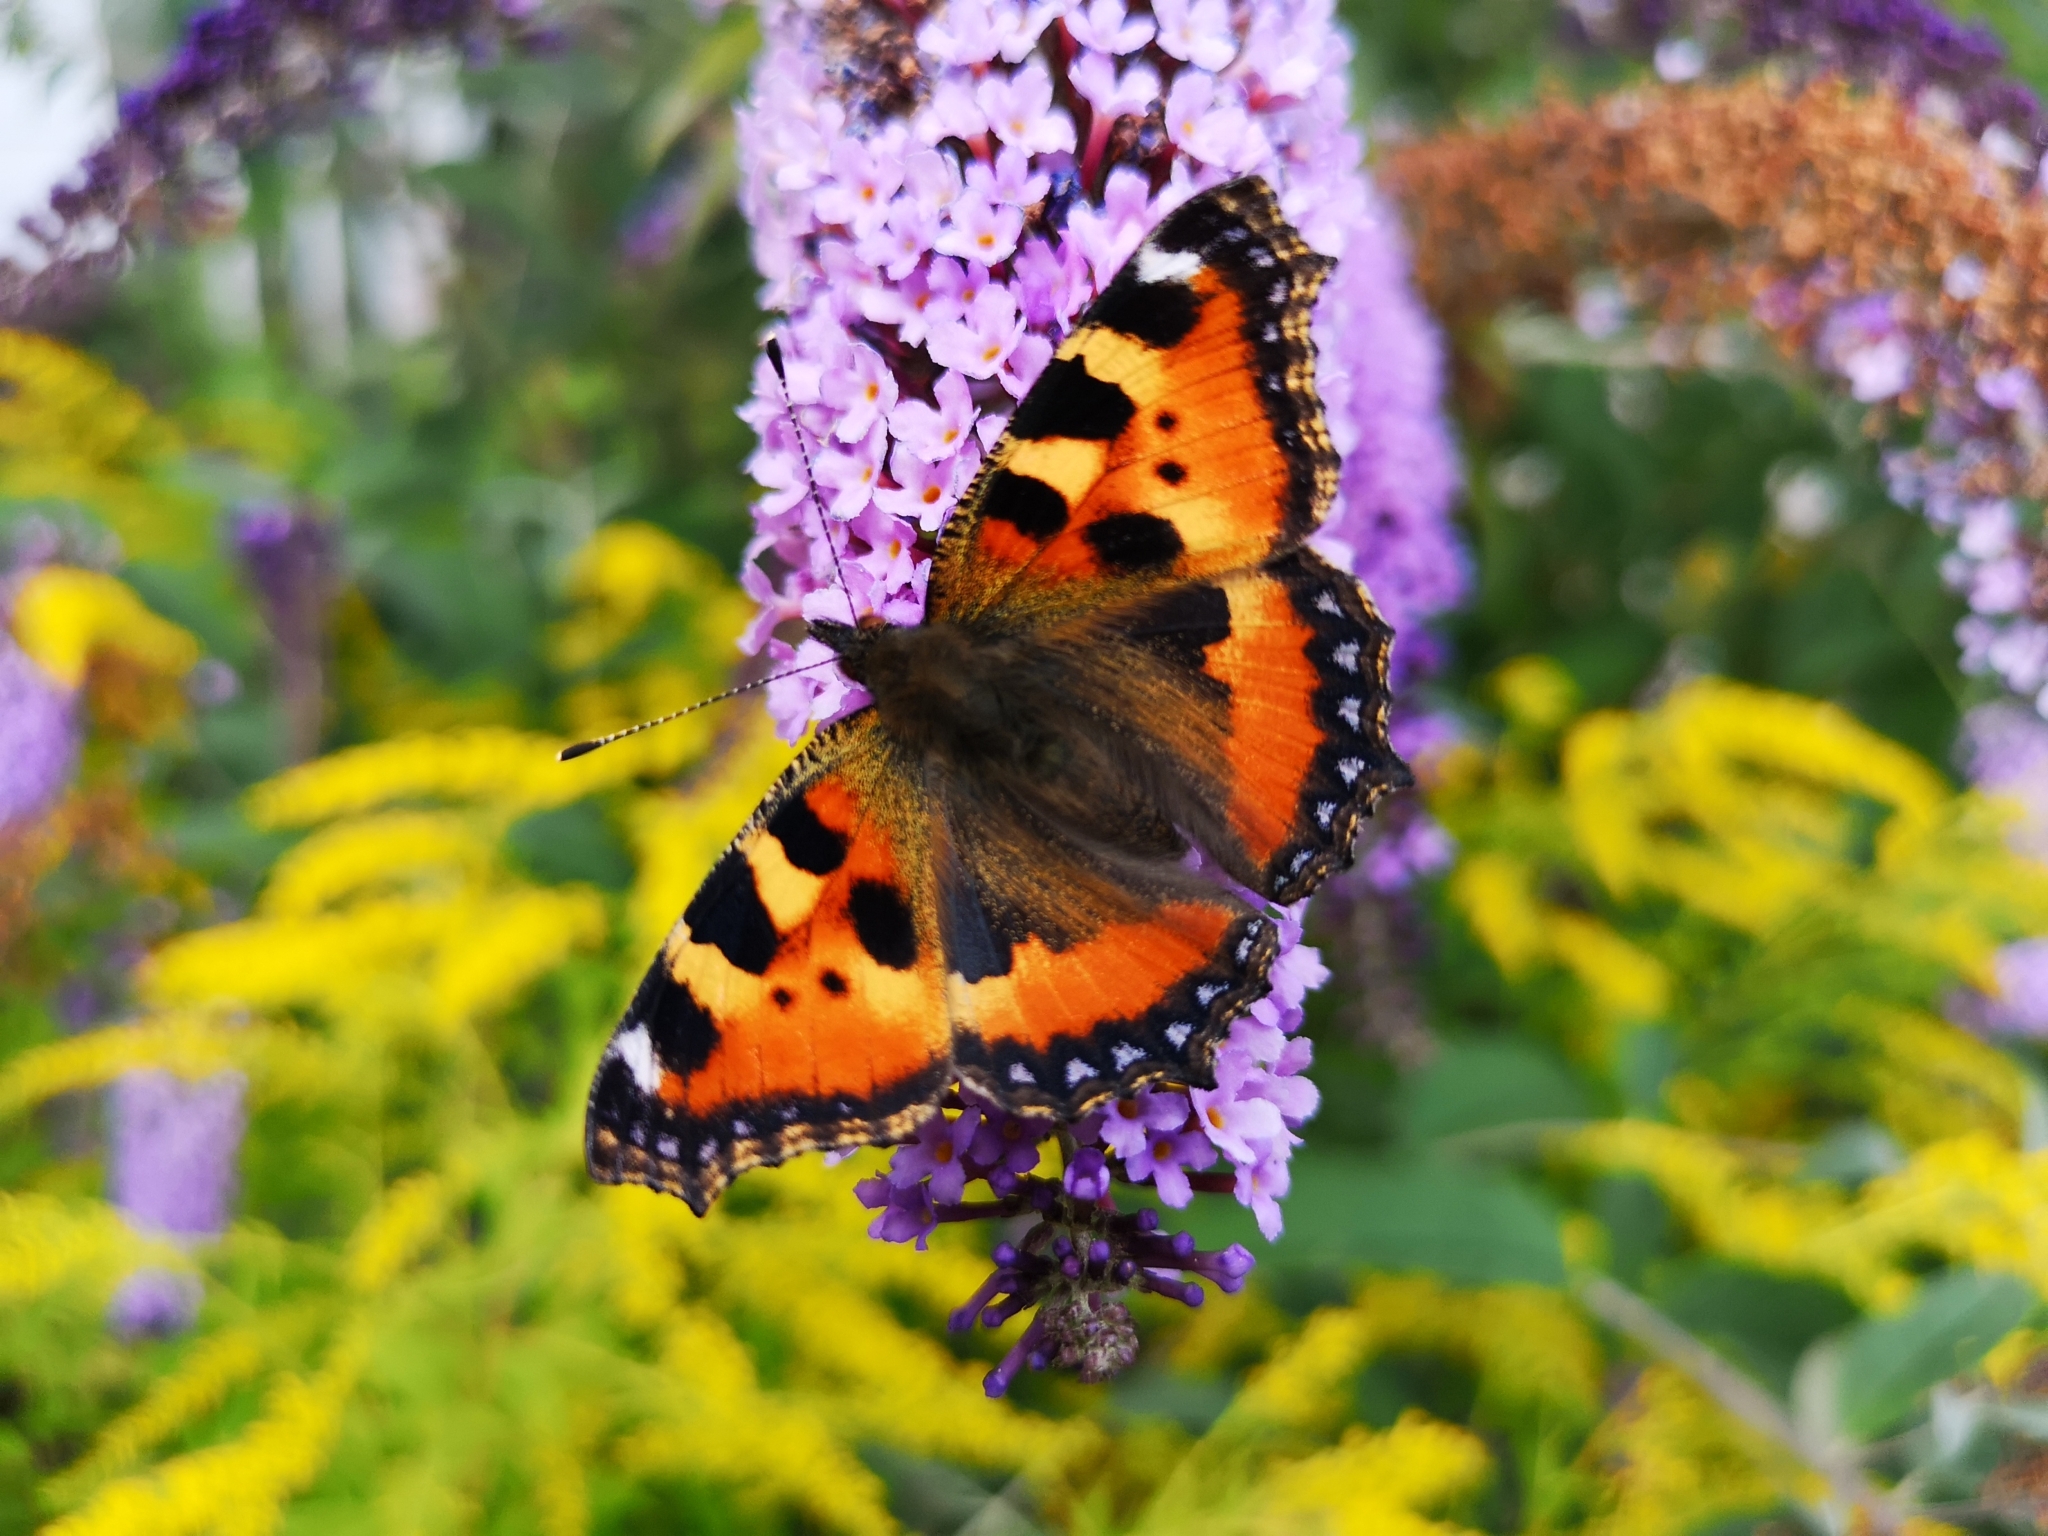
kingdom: Animalia
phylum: Arthropoda
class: Insecta
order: Lepidoptera
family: Nymphalidae
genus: Aglais
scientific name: Aglais urticae
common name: Small tortoiseshell
